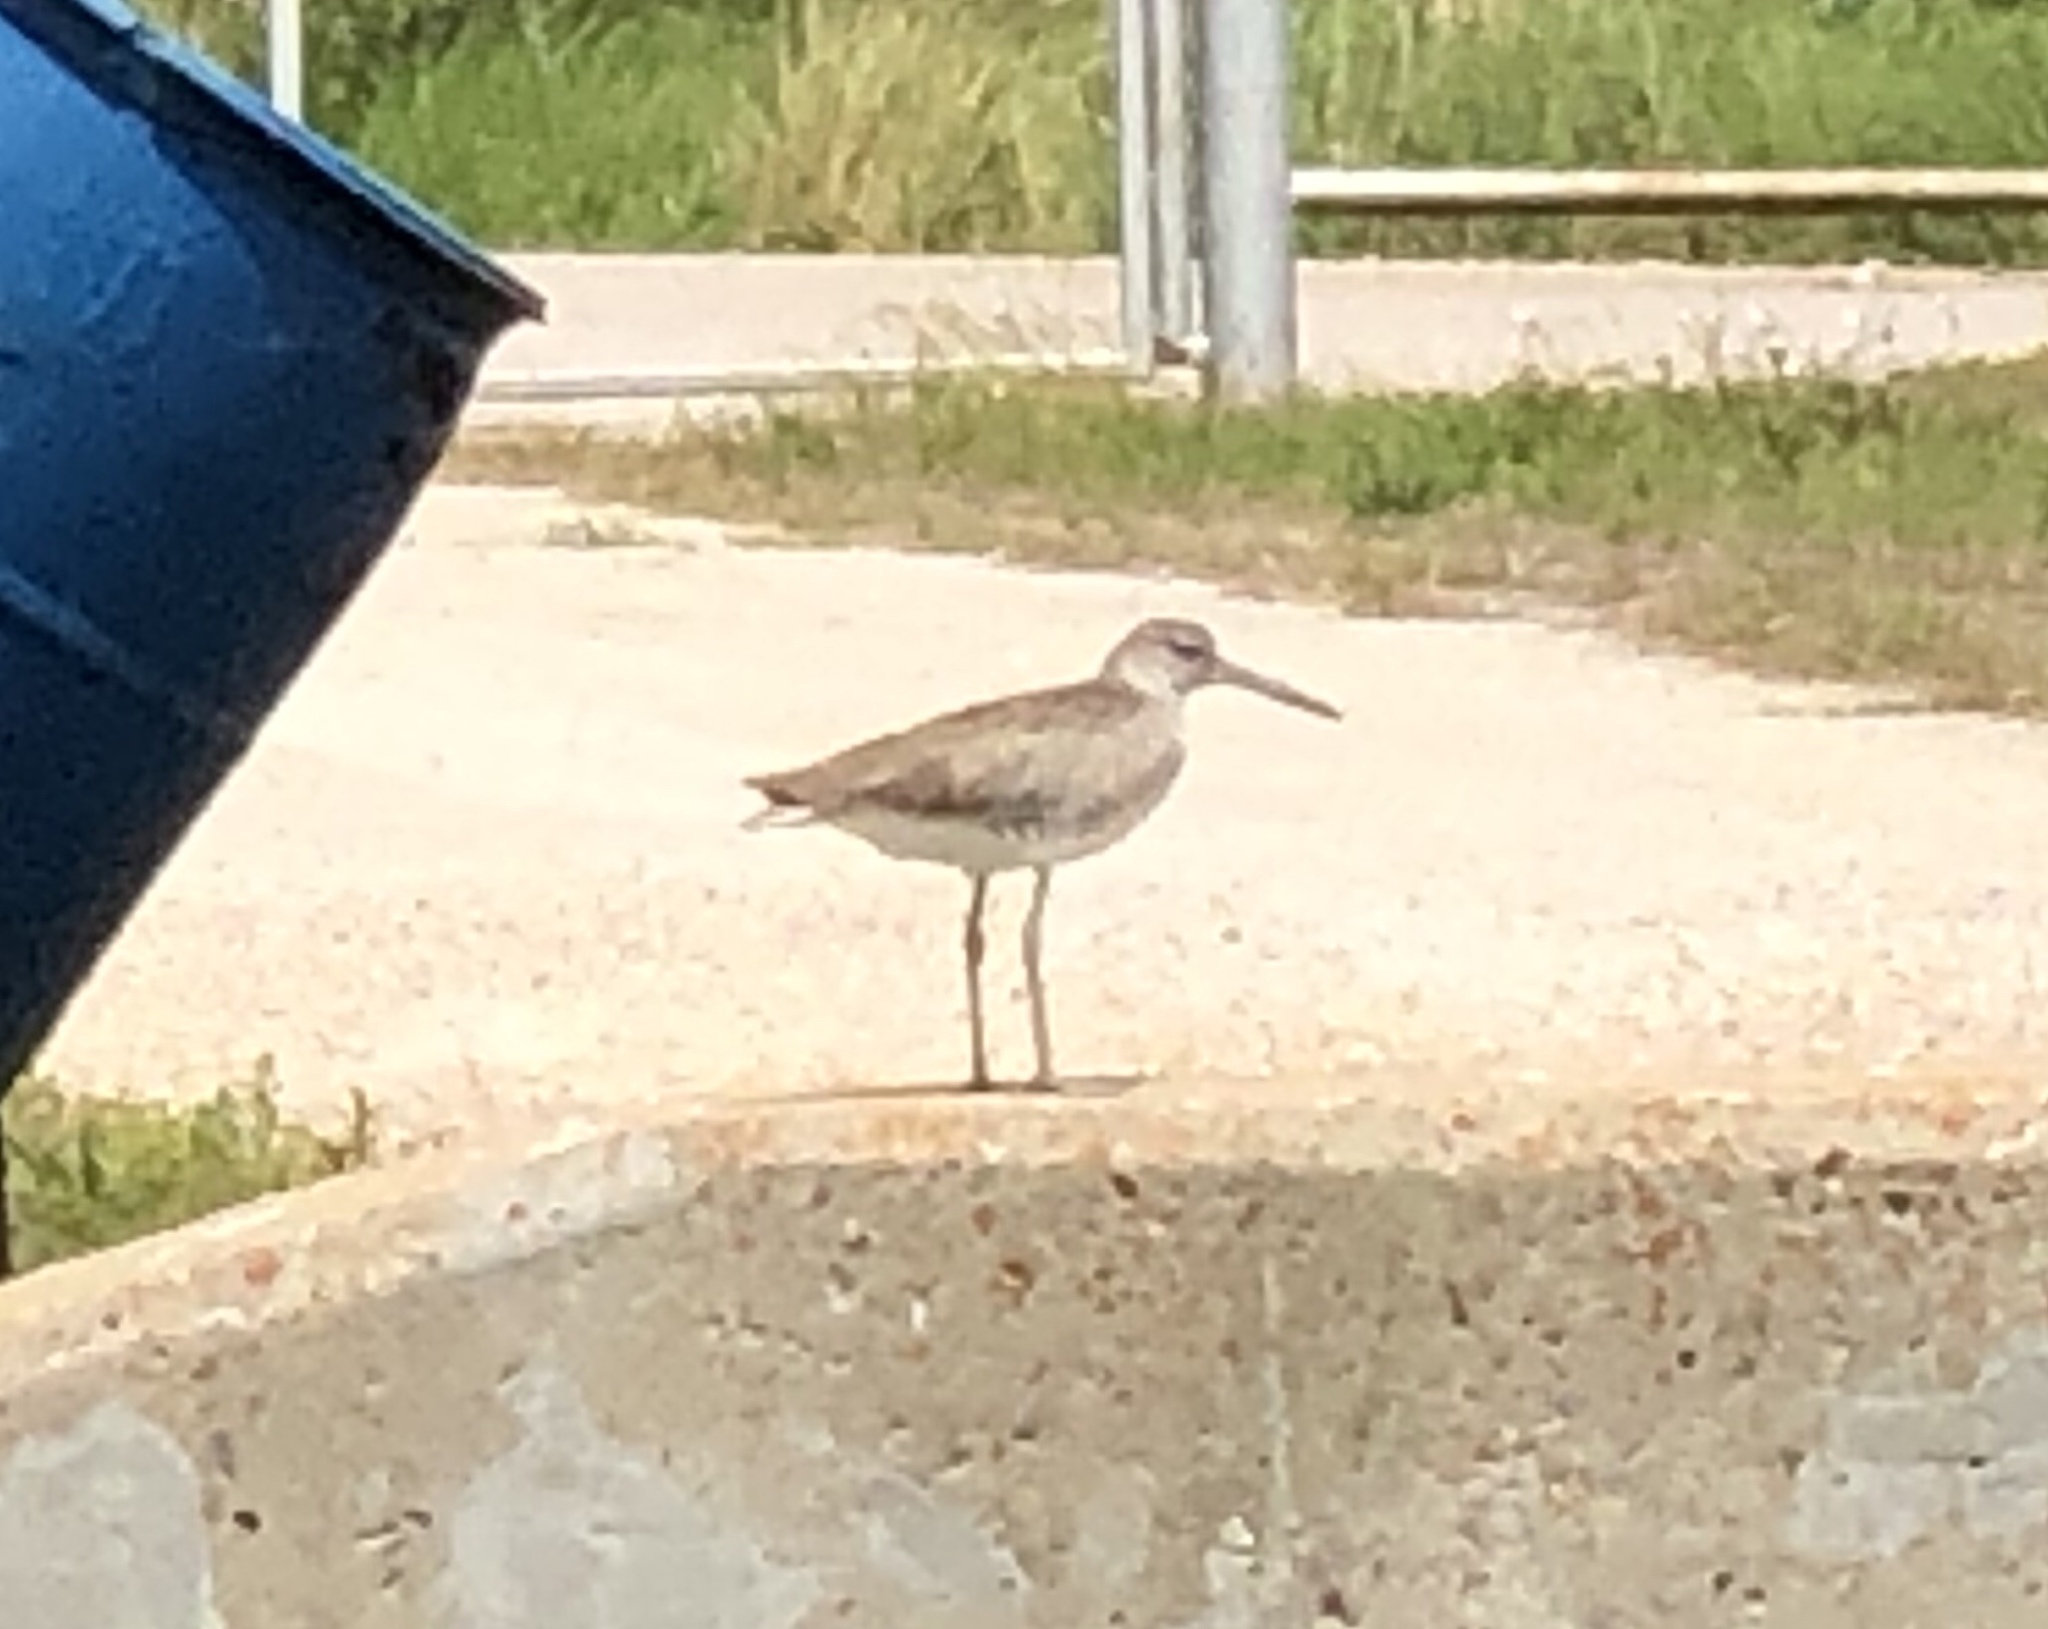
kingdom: Animalia
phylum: Chordata
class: Aves
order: Charadriiformes
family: Scolopacidae
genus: Tringa
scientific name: Tringa semipalmata
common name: Willet
